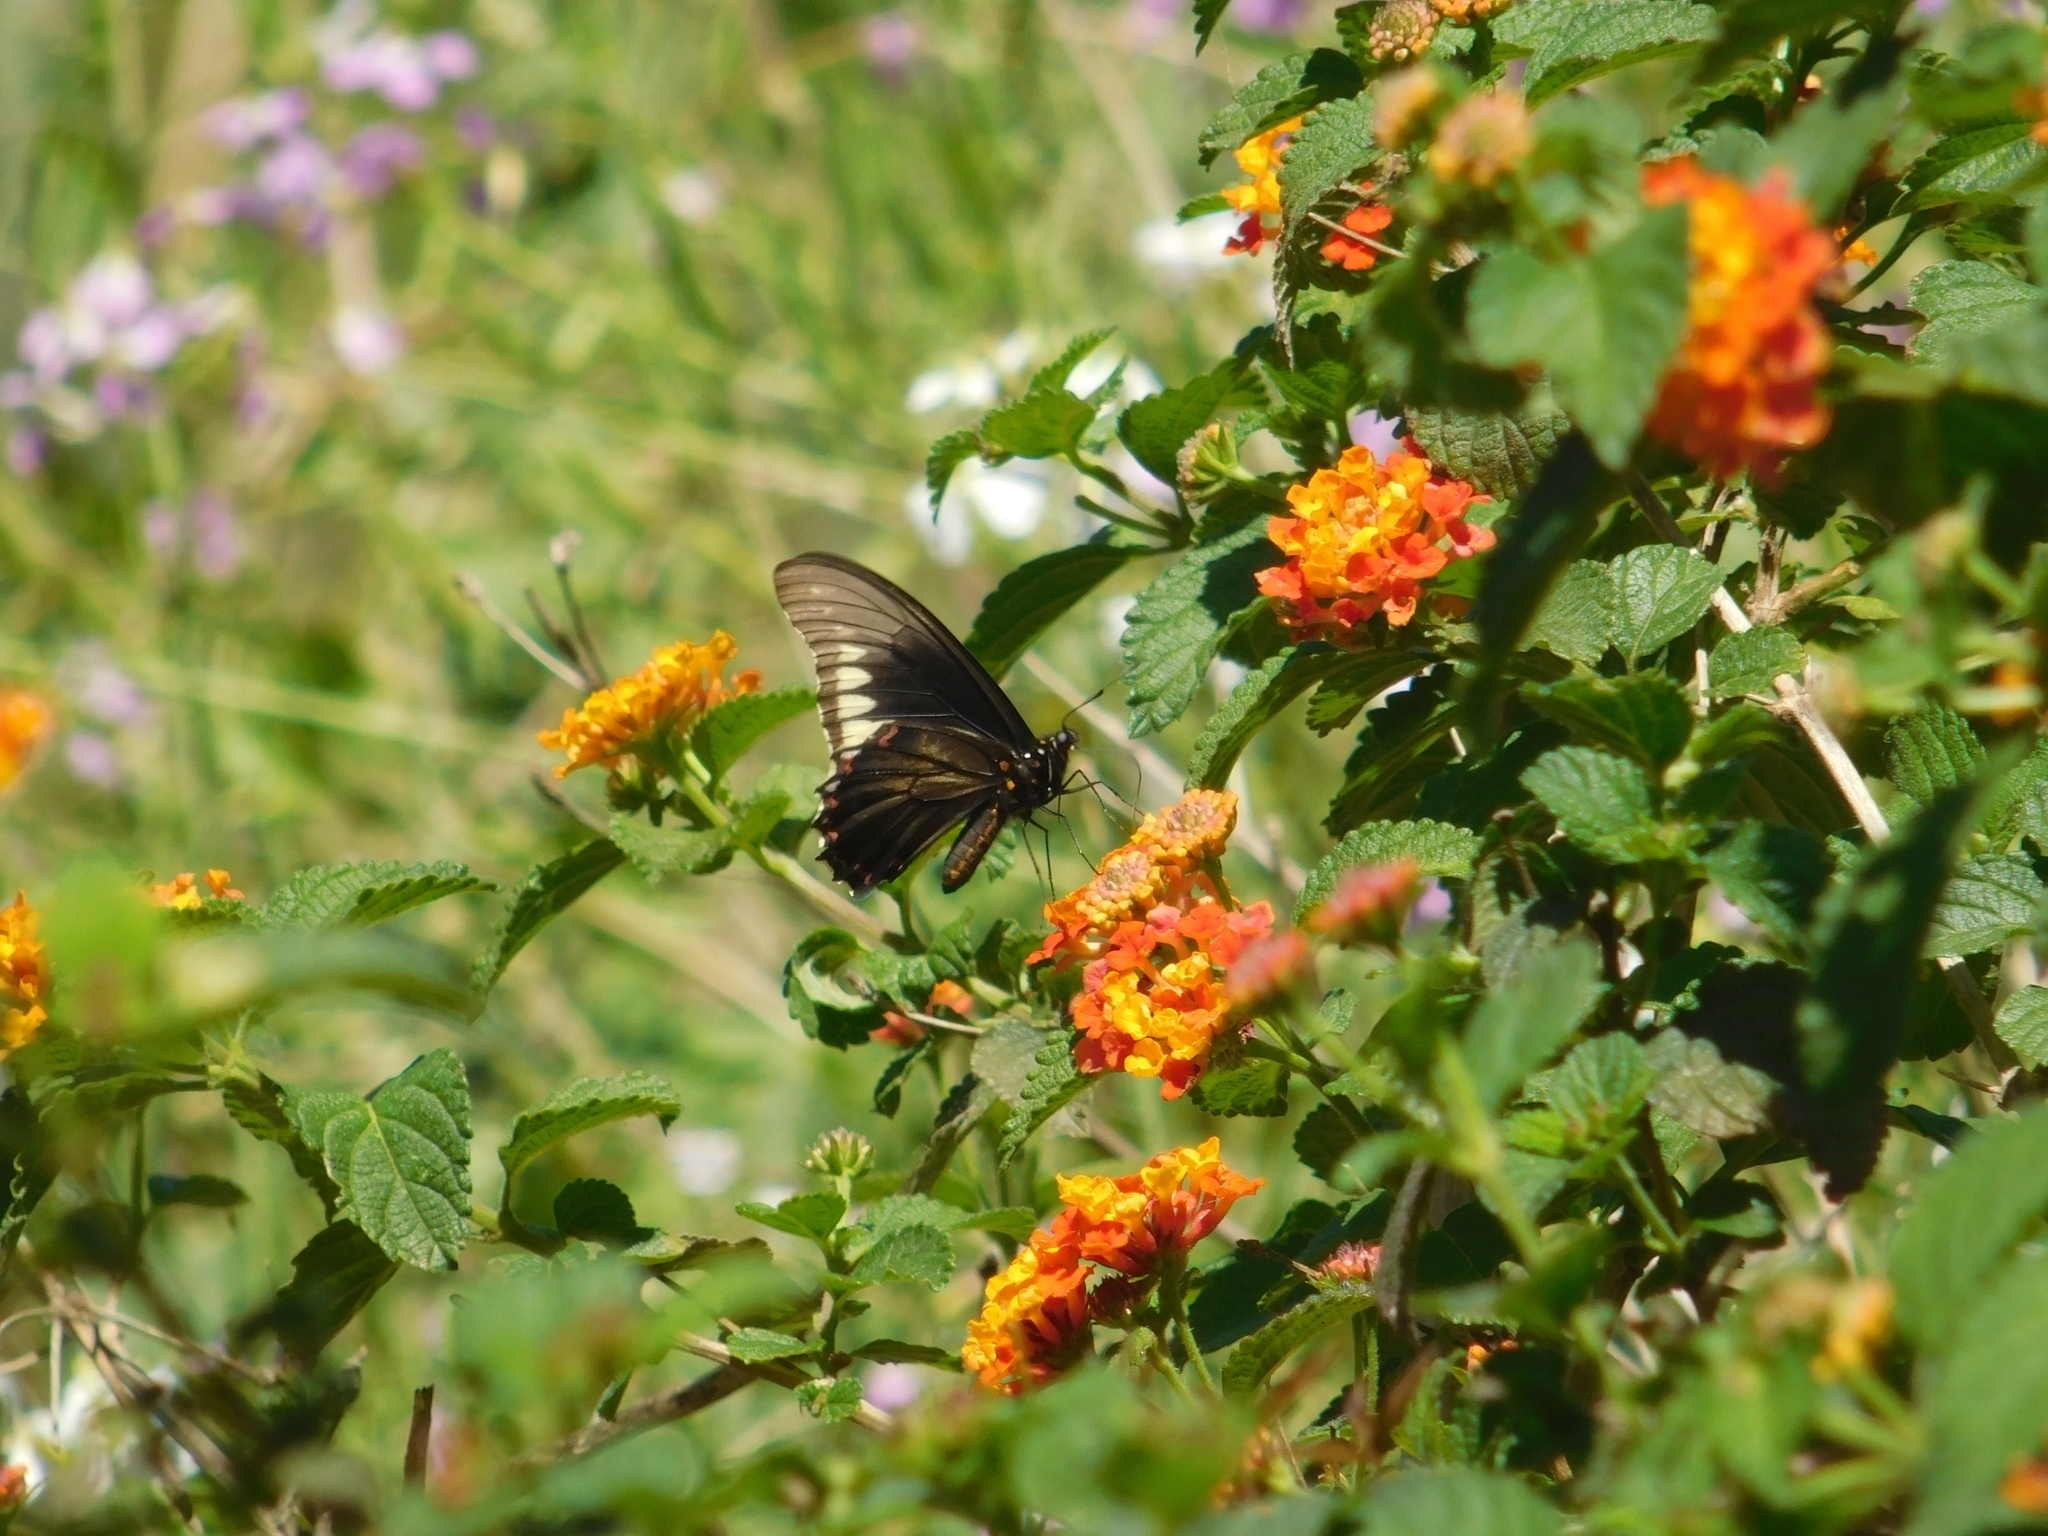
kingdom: Animalia
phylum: Arthropoda
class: Insecta
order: Lepidoptera
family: Papilionidae
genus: Battus
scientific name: Battus polydamas
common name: Polydamas swallowtail
